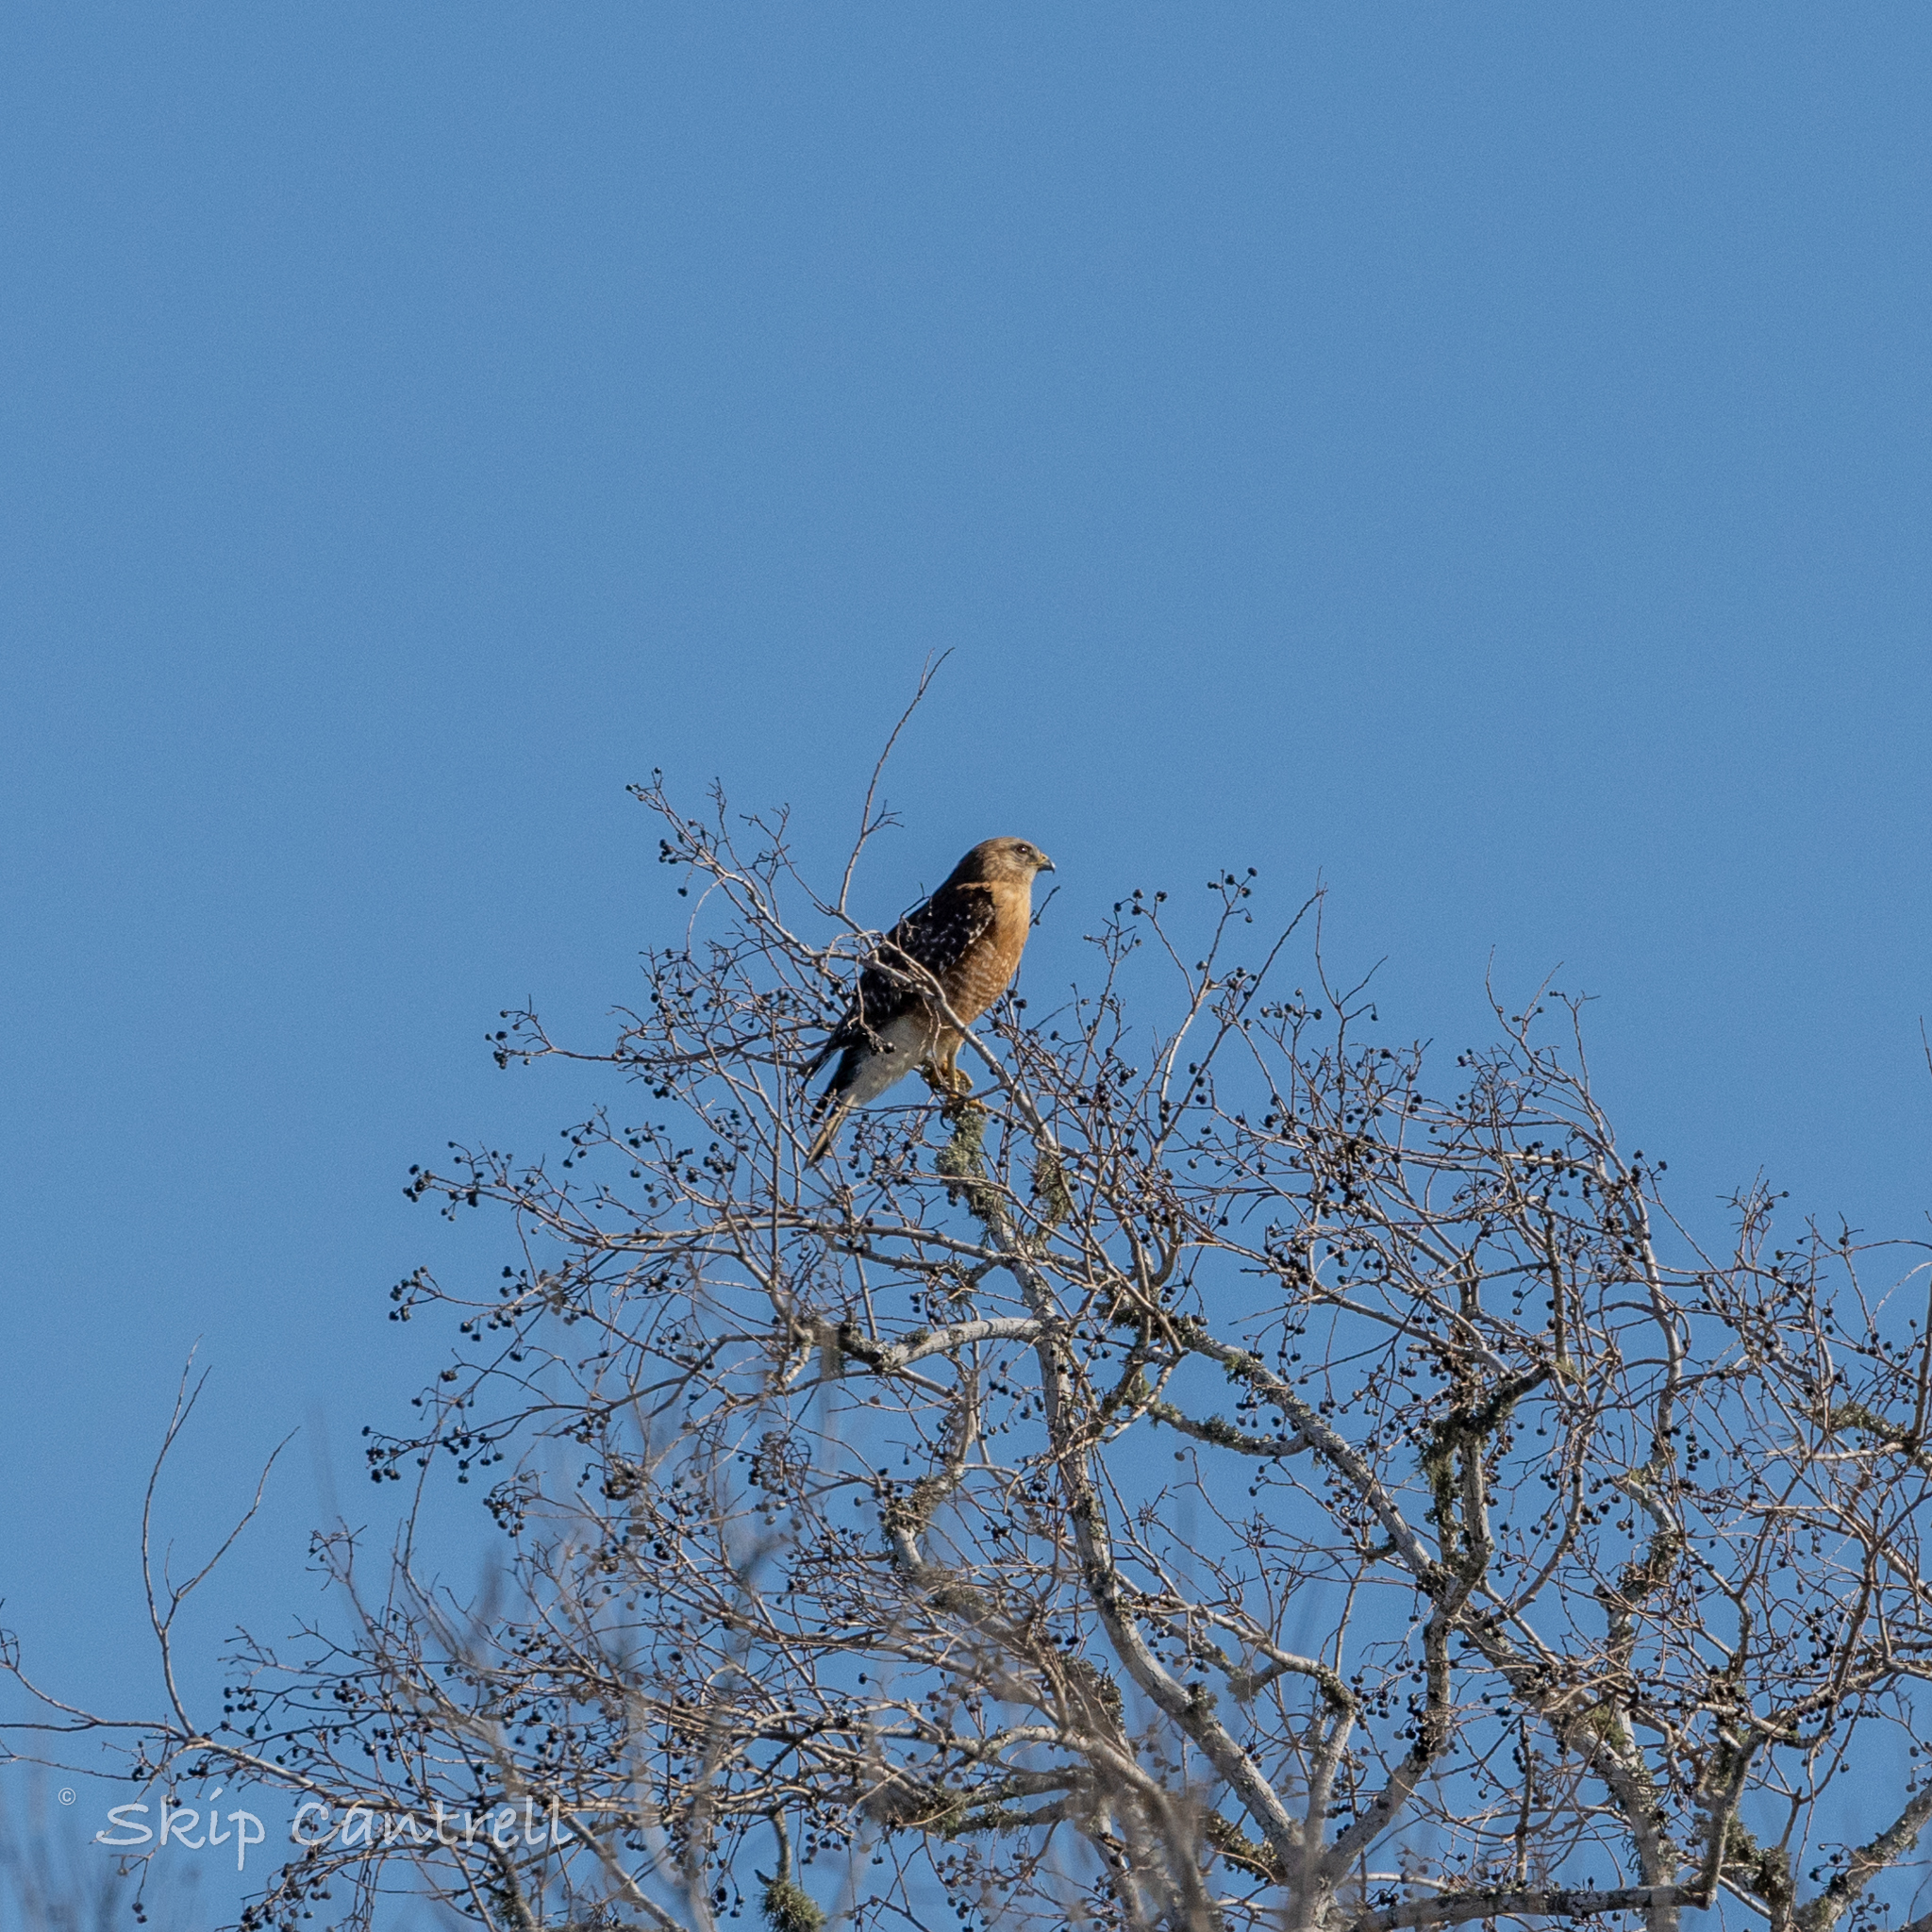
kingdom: Animalia
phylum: Chordata
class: Aves
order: Accipitriformes
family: Accipitridae
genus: Buteo
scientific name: Buteo lineatus
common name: Red-shouldered hawk
